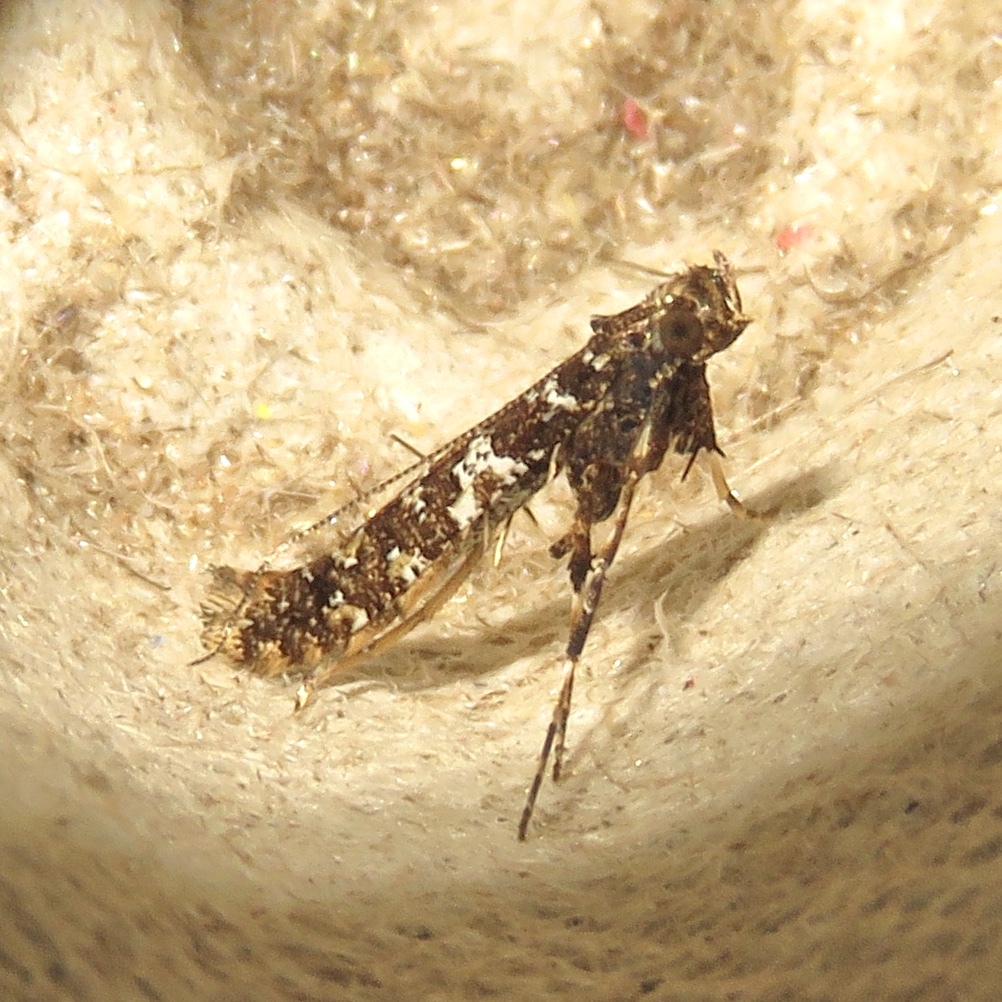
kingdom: Animalia
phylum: Arthropoda
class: Insecta
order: Lepidoptera
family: Gracillariidae
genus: Caloptilia
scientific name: Caloptilia serotinella
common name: Cherry leafroller moth
